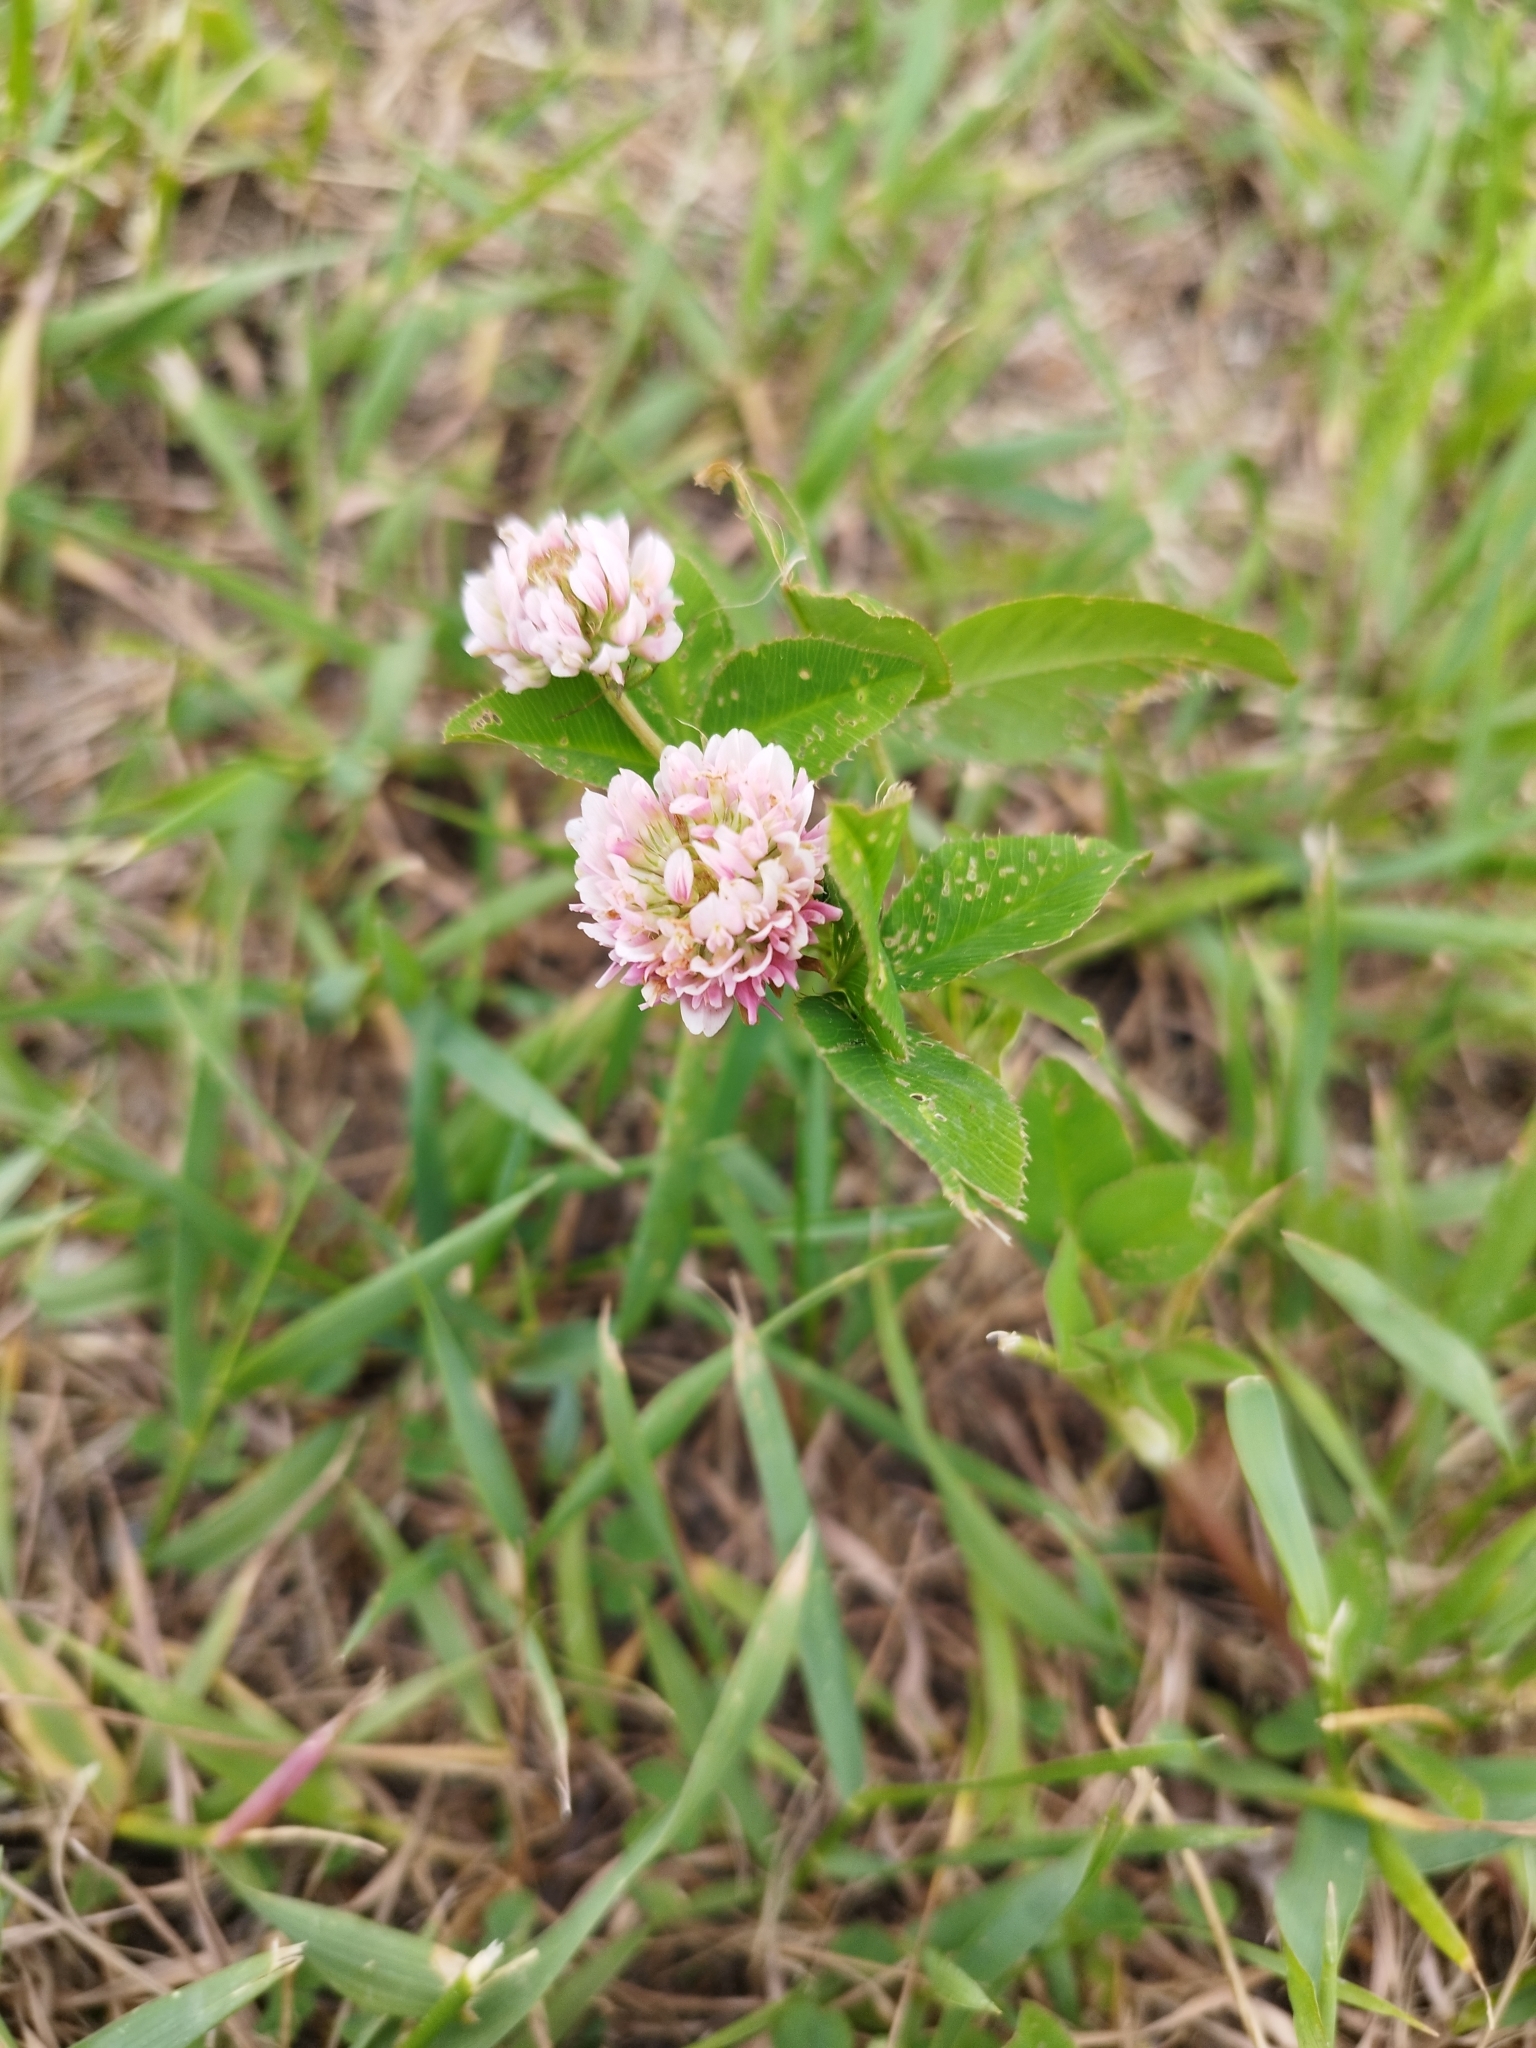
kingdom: Plantae
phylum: Tracheophyta
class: Magnoliopsida
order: Fabales
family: Fabaceae
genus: Trifolium
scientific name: Trifolium hybridum
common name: Alsike clover
